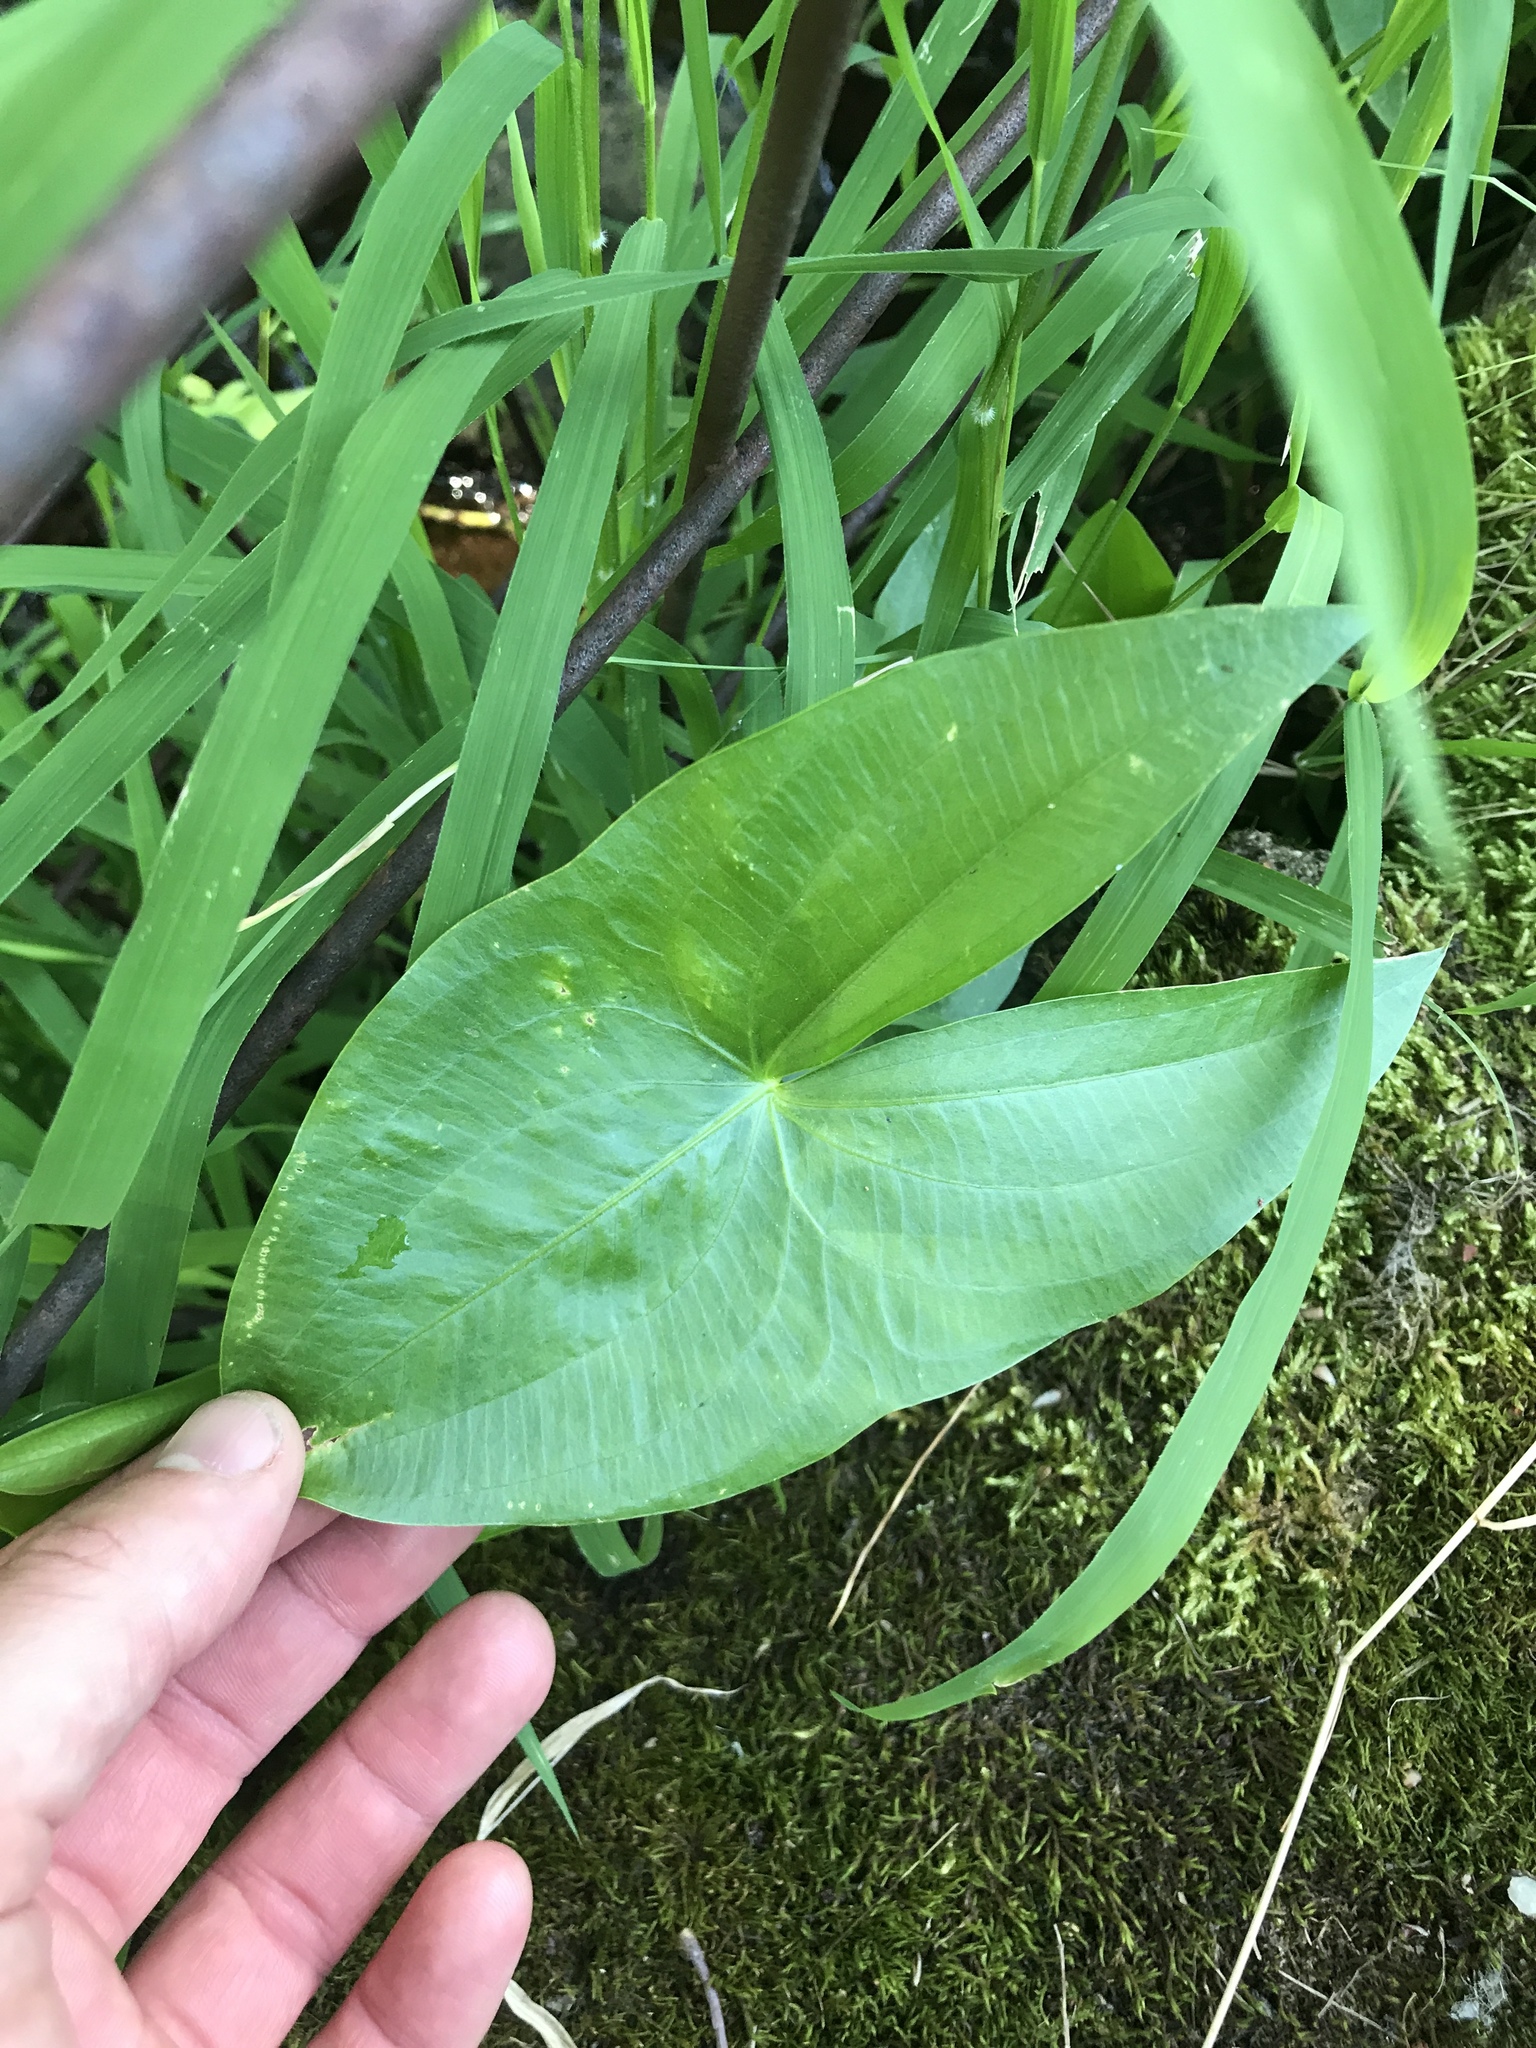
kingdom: Plantae
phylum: Tracheophyta
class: Liliopsida
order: Alismatales
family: Alismataceae
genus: Sagittaria
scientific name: Sagittaria latifolia
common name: Duck-potato
